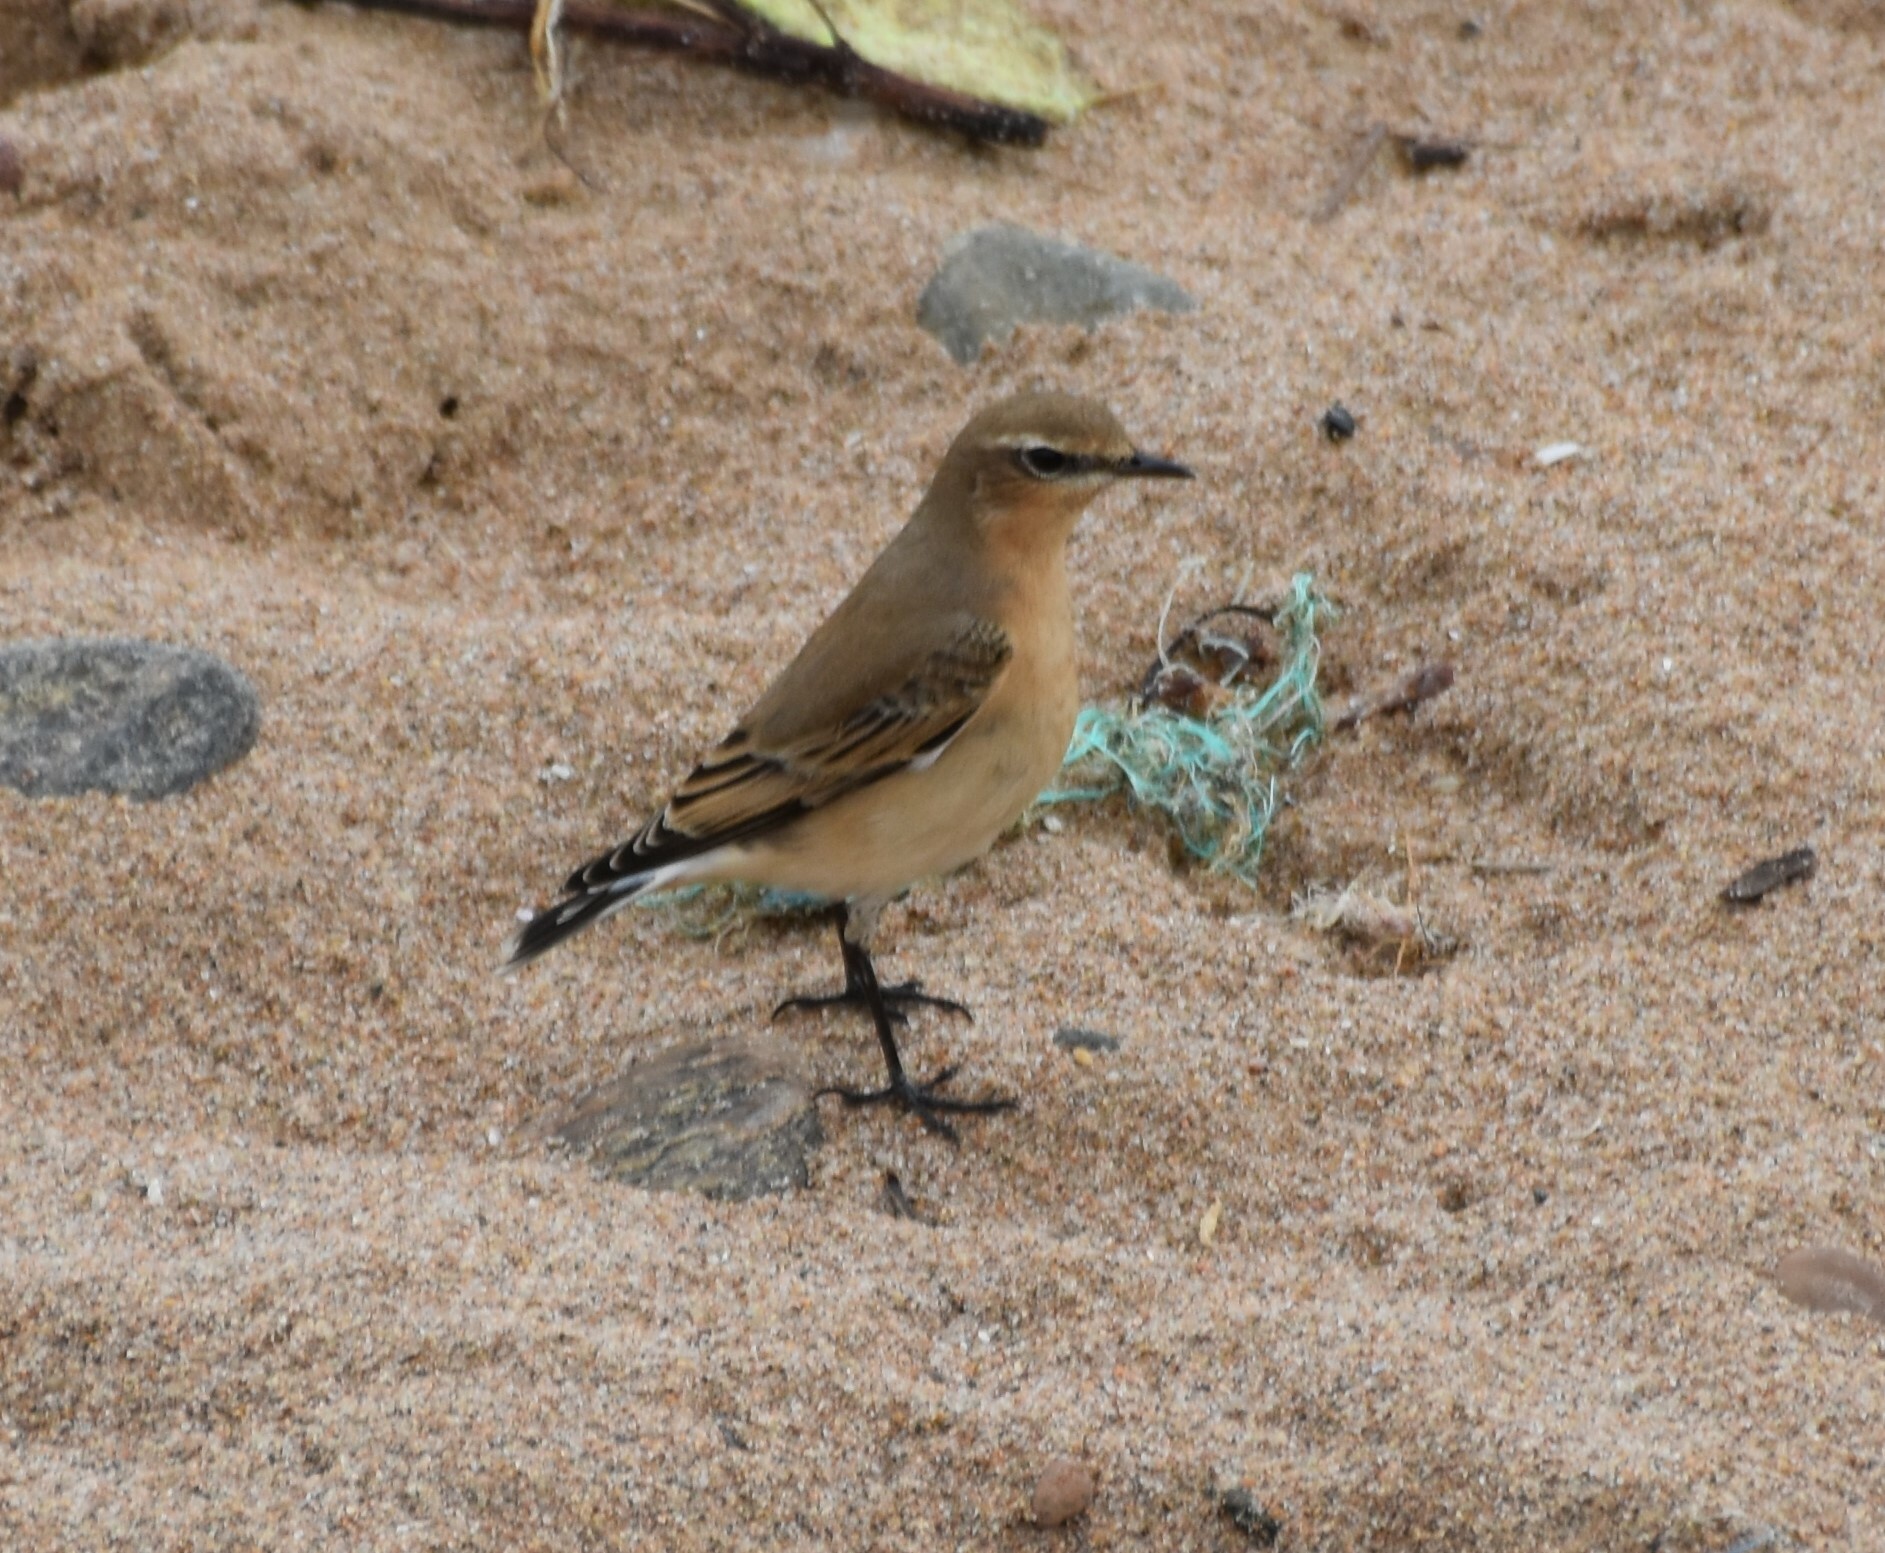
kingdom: Animalia
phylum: Chordata
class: Aves
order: Passeriformes
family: Muscicapidae
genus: Oenanthe
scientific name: Oenanthe oenanthe
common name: Northern wheatear
